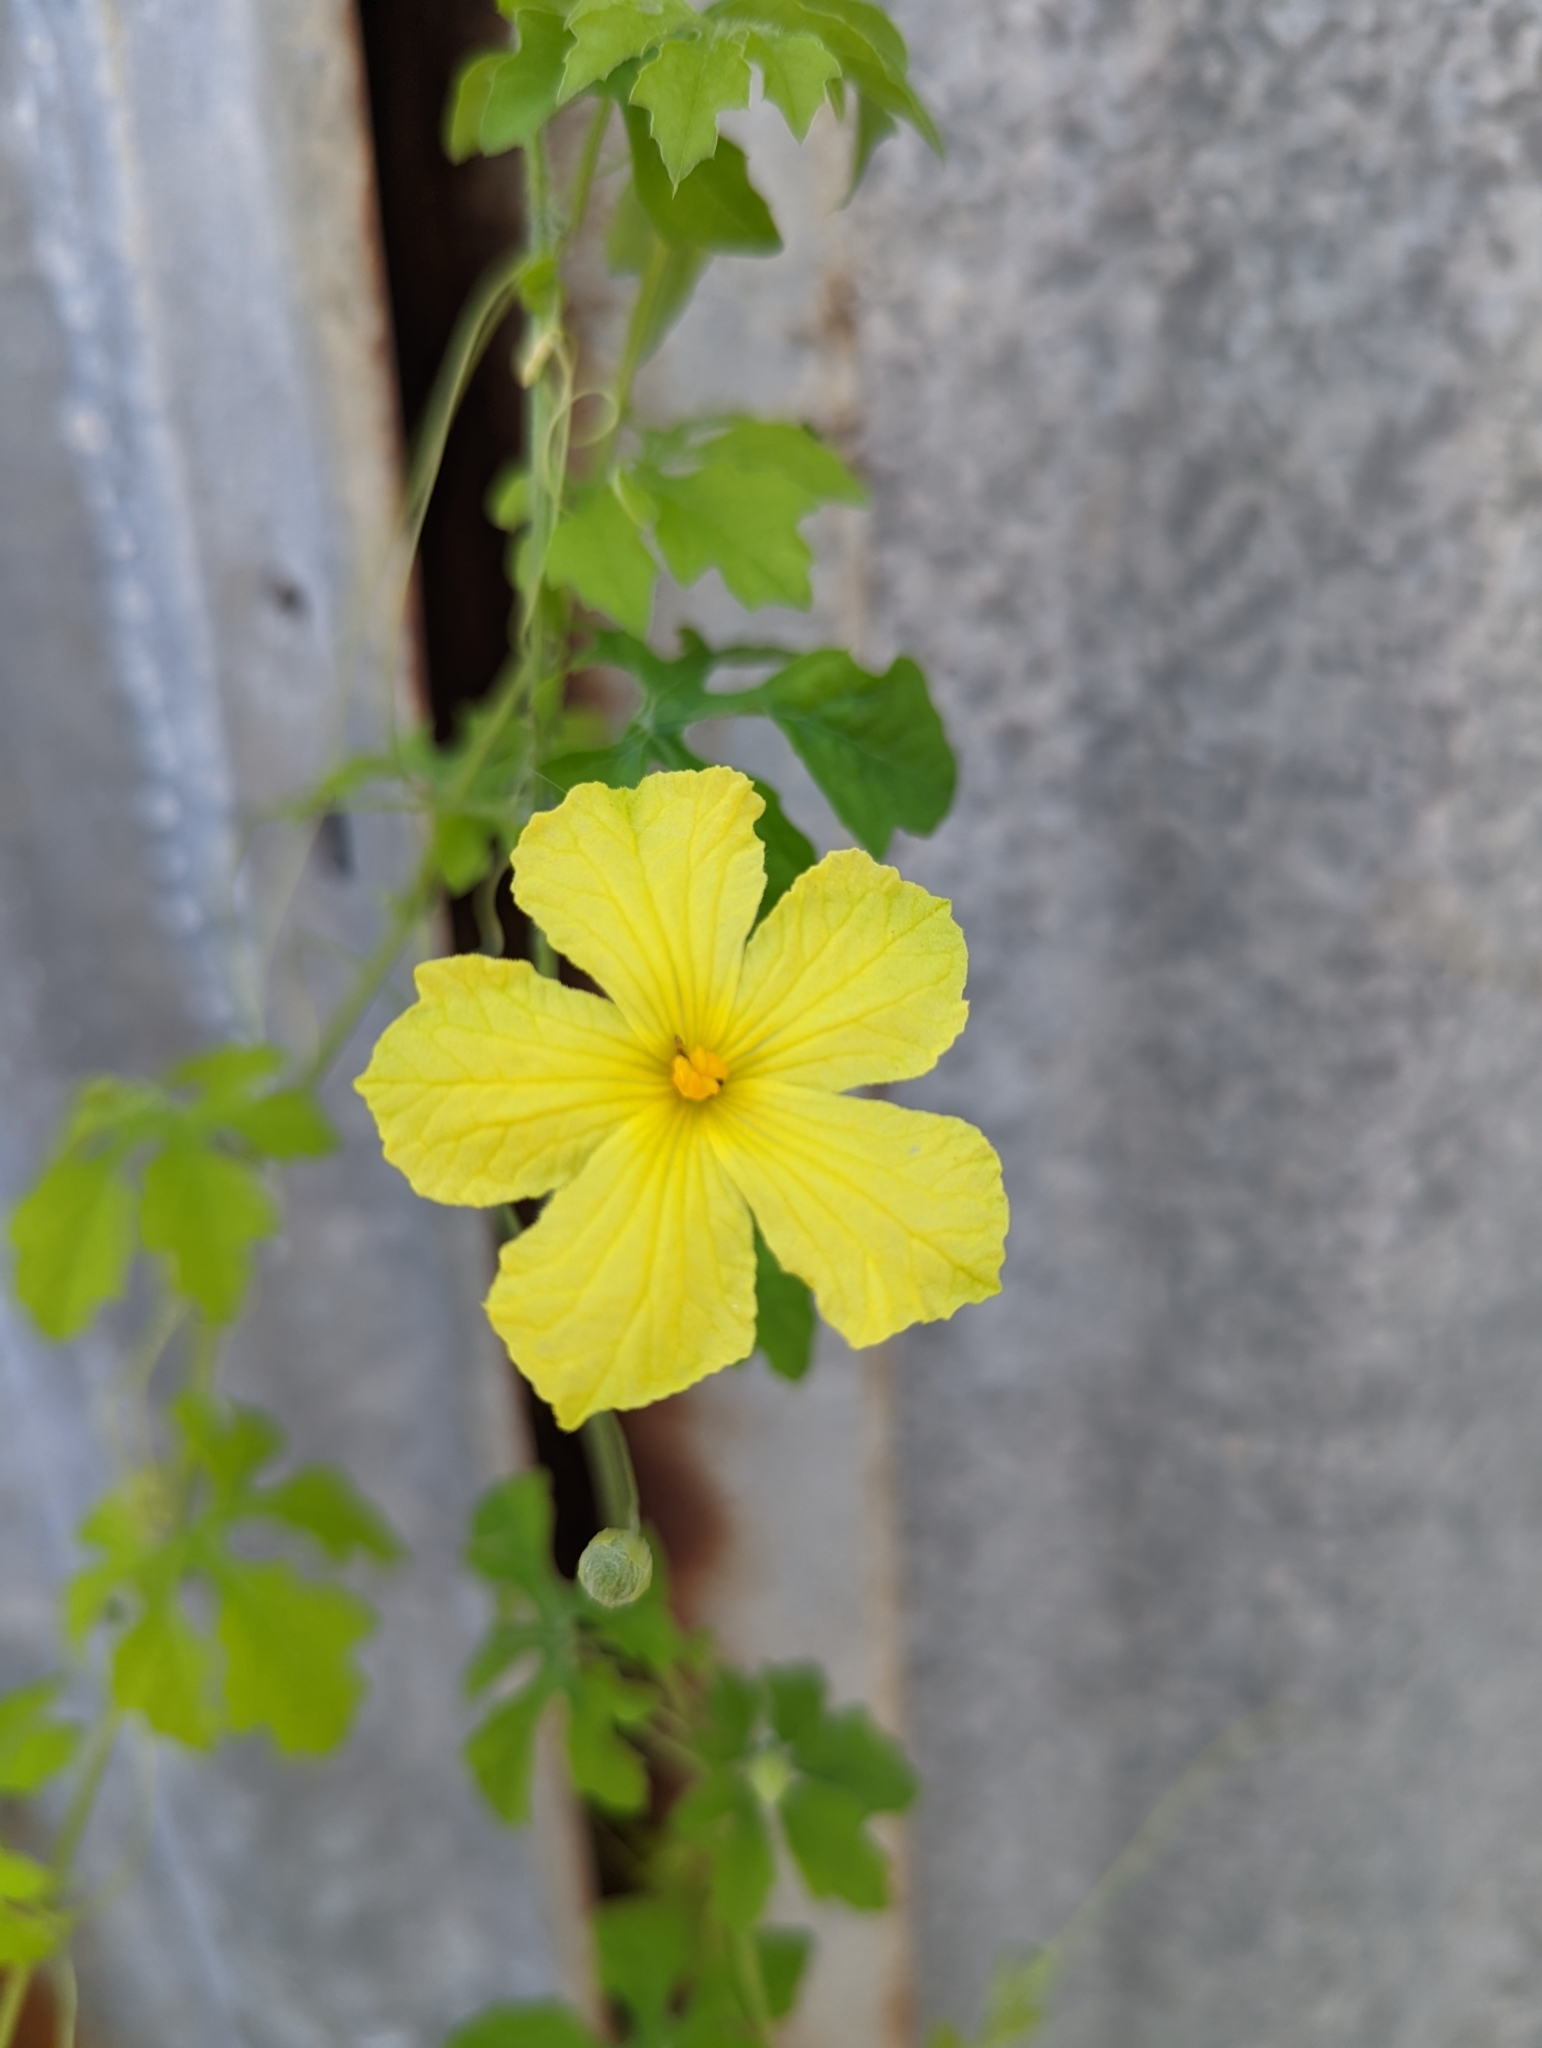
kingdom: Plantae
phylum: Tracheophyta
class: Magnoliopsida
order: Cucurbitales
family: Cucurbitaceae
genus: Momordica
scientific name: Momordica charantia
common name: Balsampear
